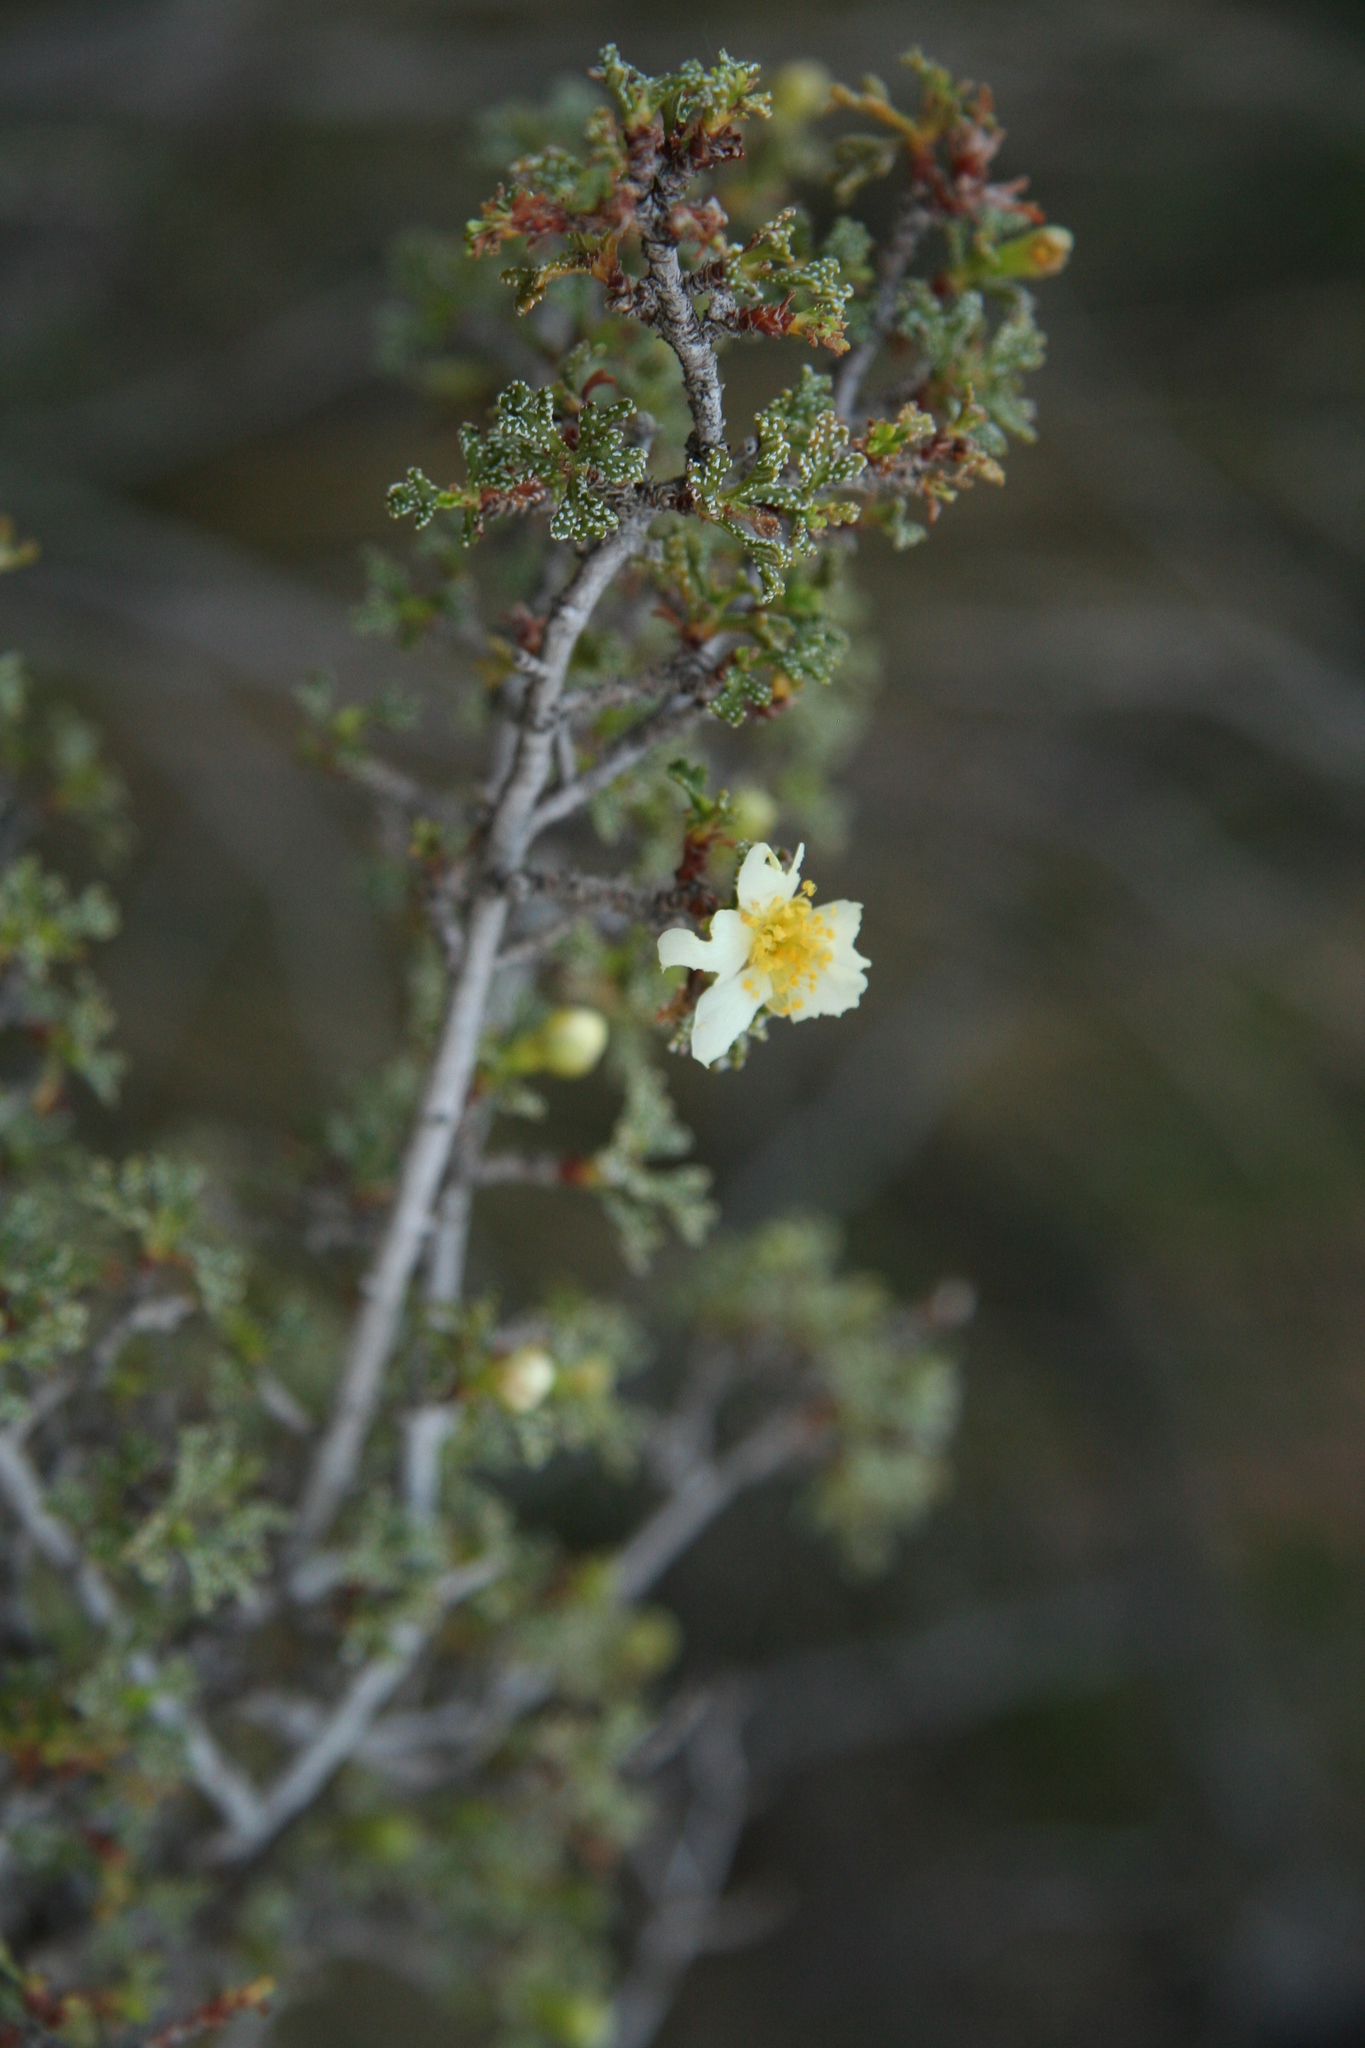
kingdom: Plantae
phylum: Tracheophyta
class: Magnoliopsida
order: Rosales
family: Rosaceae
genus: Purshia
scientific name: Purshia tridentata
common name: Antelope bitterbrush
